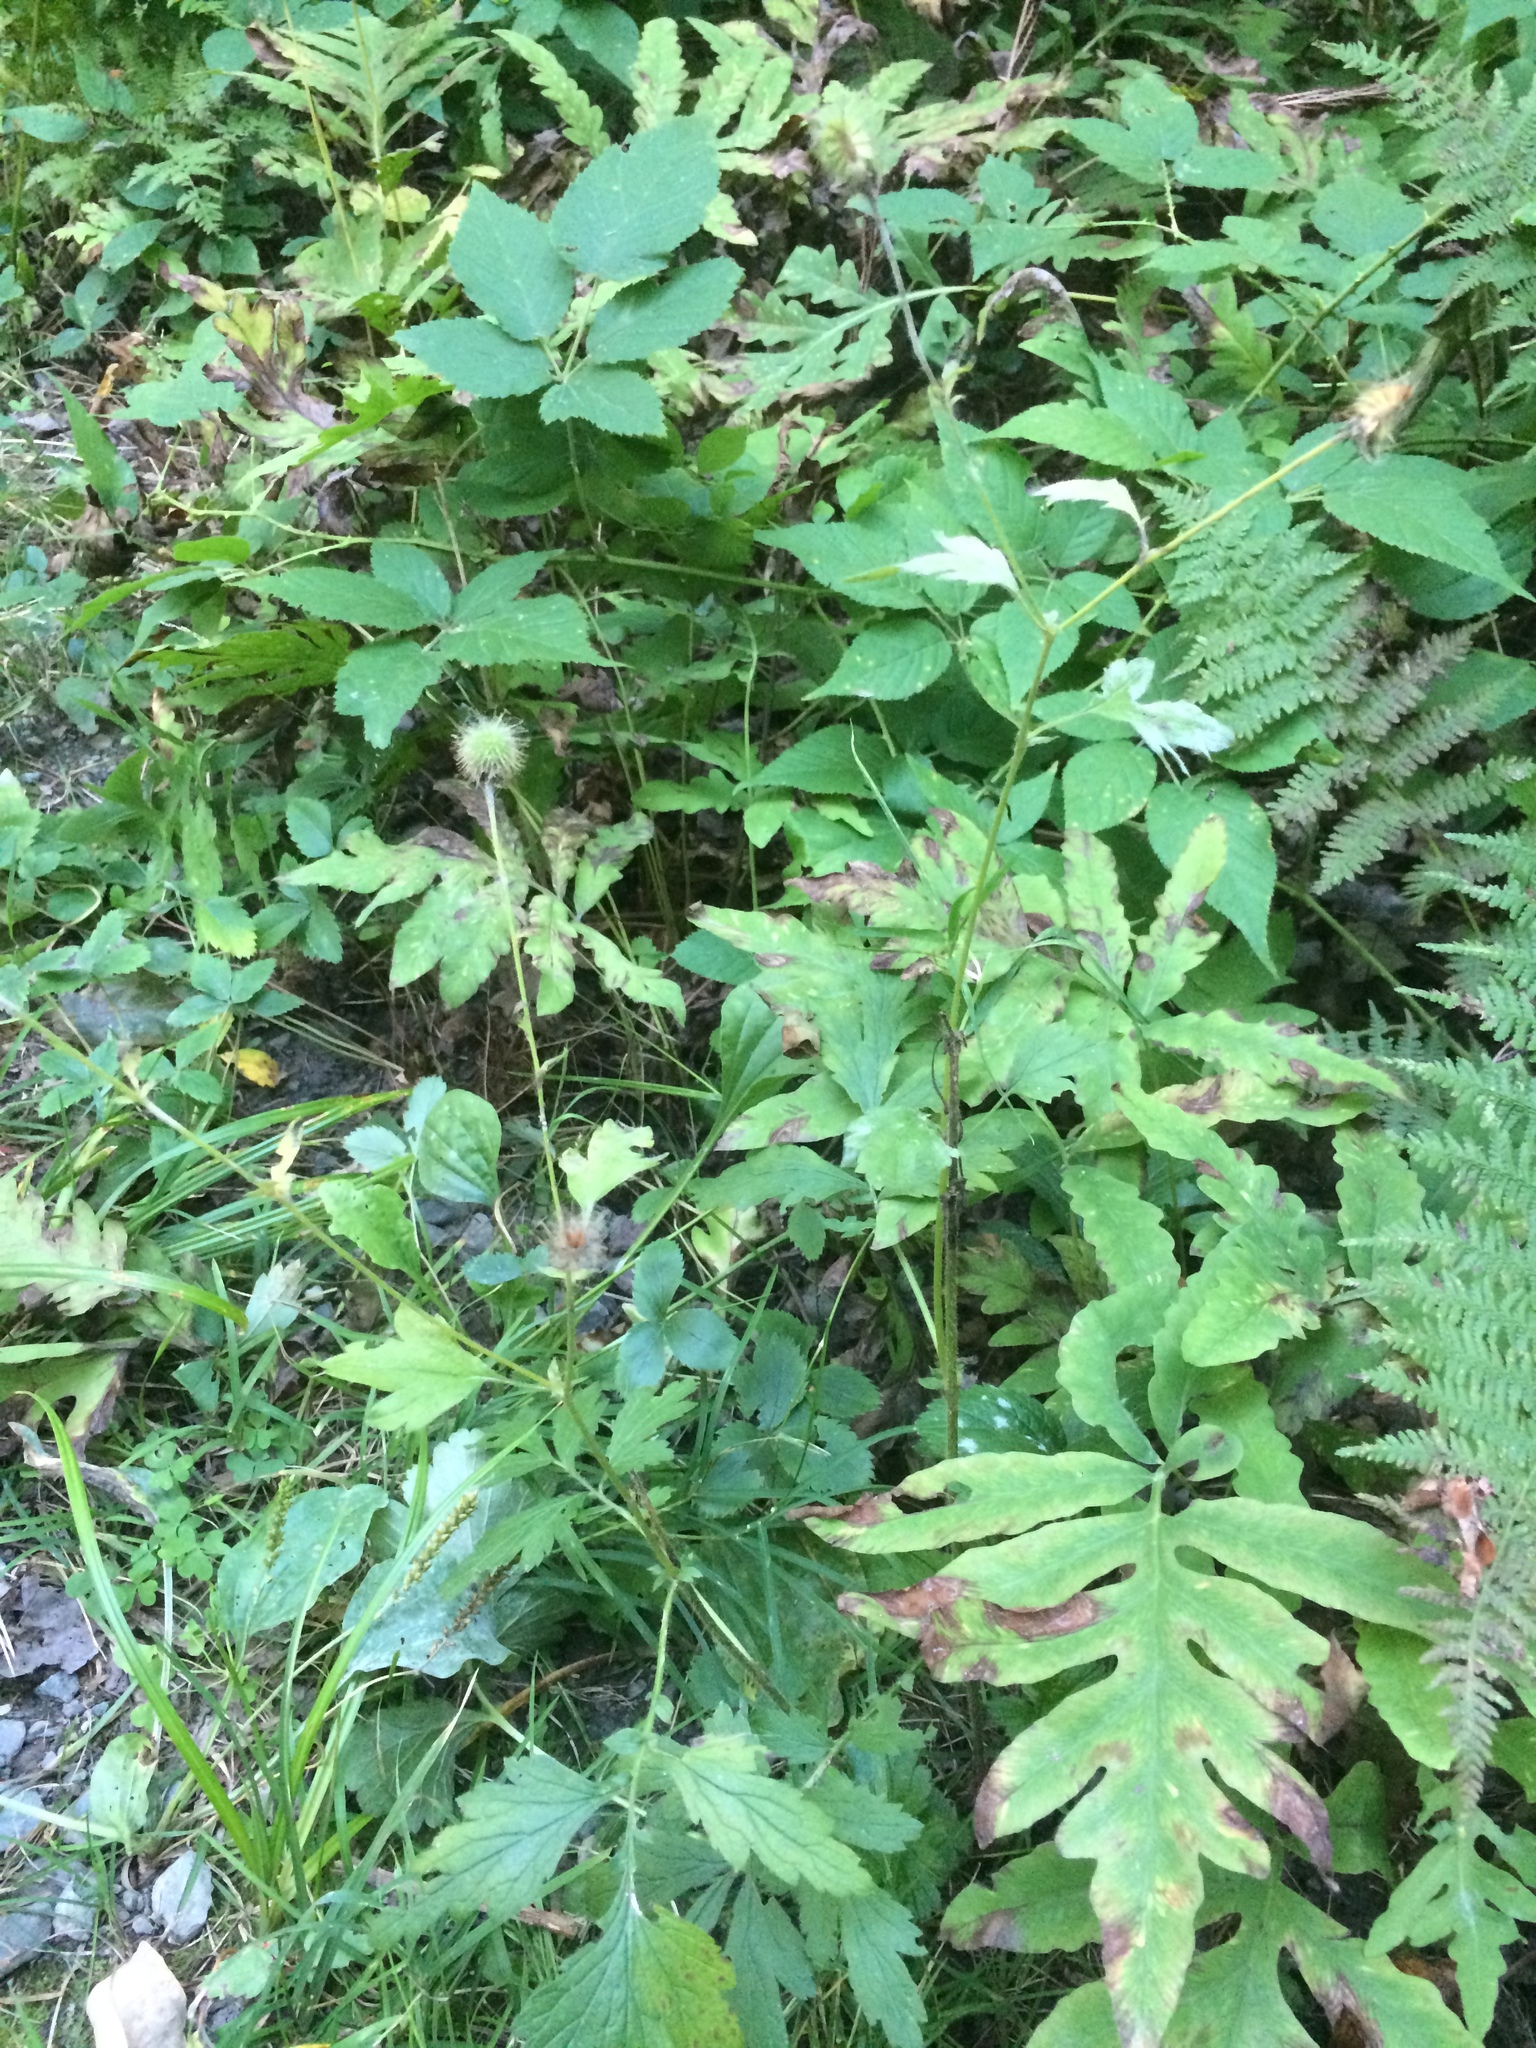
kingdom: Plantae
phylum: Tracheophyta
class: Magnoliopsida
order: Rosales
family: Rosaceae
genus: Geum
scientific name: Geum aleppicum
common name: Yellow avens
